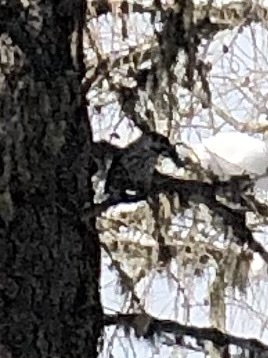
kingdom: Animalia
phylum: Chordata
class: Aves
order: Passeriformes
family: Corvidae
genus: Nucifraga
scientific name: Nucifraga caryocatactes
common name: Spotted nutcracker
